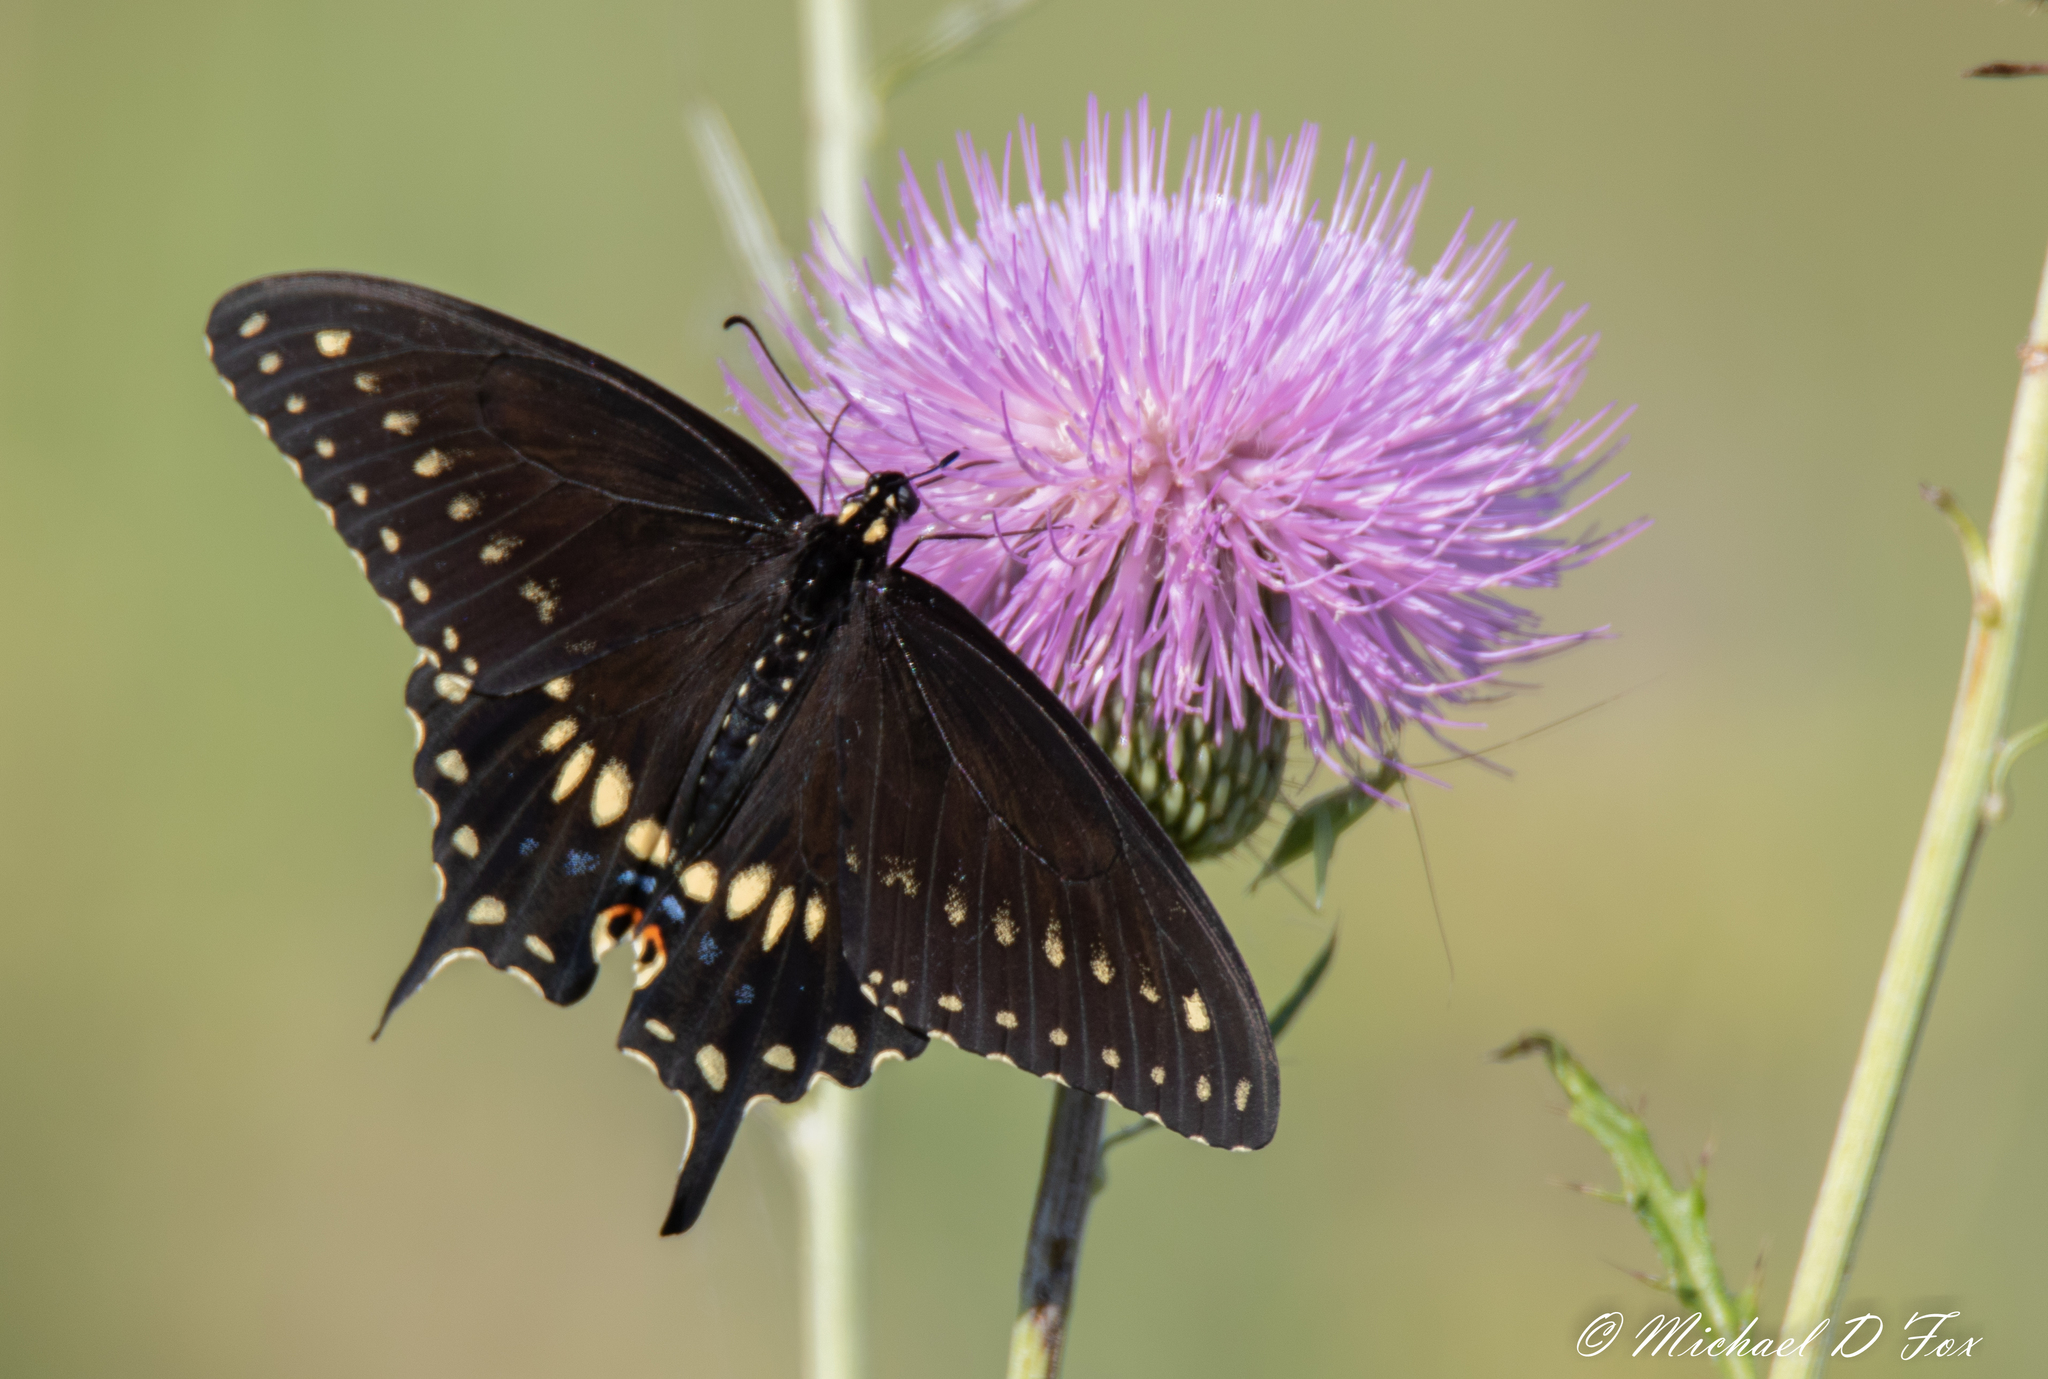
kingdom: Animalia
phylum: Arthropoda
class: Insecta
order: Lepidoptera
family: Papilionidae
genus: Papilio
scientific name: Papilio polyxenes
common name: Black swallowtail
